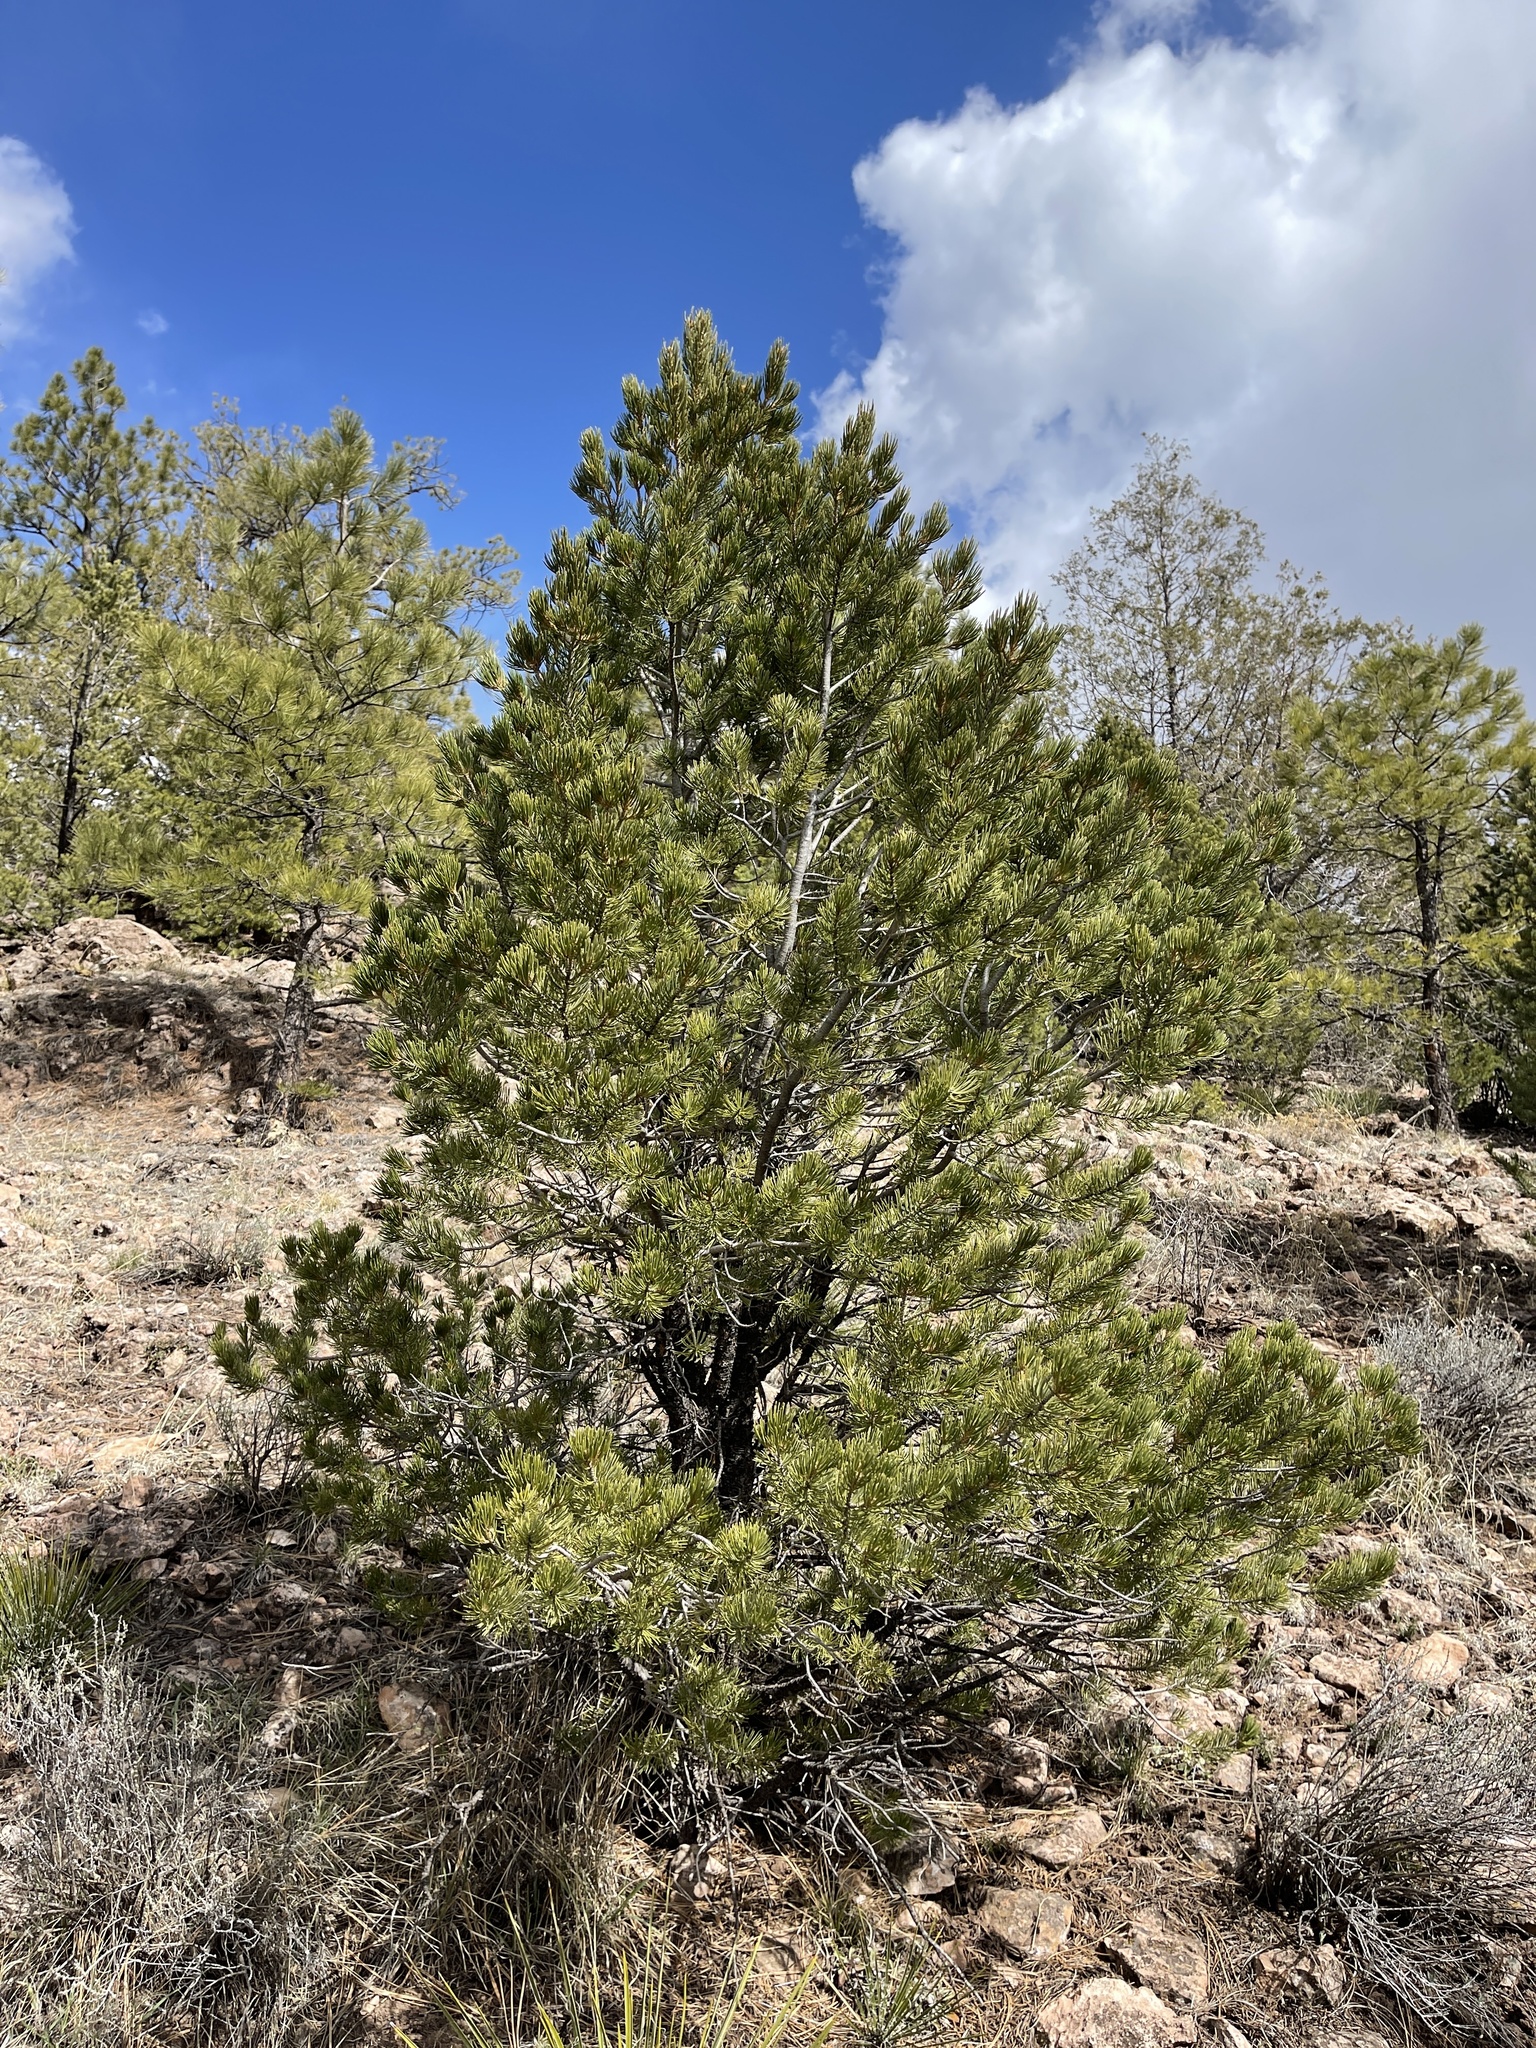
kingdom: Plantae
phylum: Tracheophyta
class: Pinopsida
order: Pinales
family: Pinaceae
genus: Pinus
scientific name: Pinus edulis
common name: Colorado pinyon
